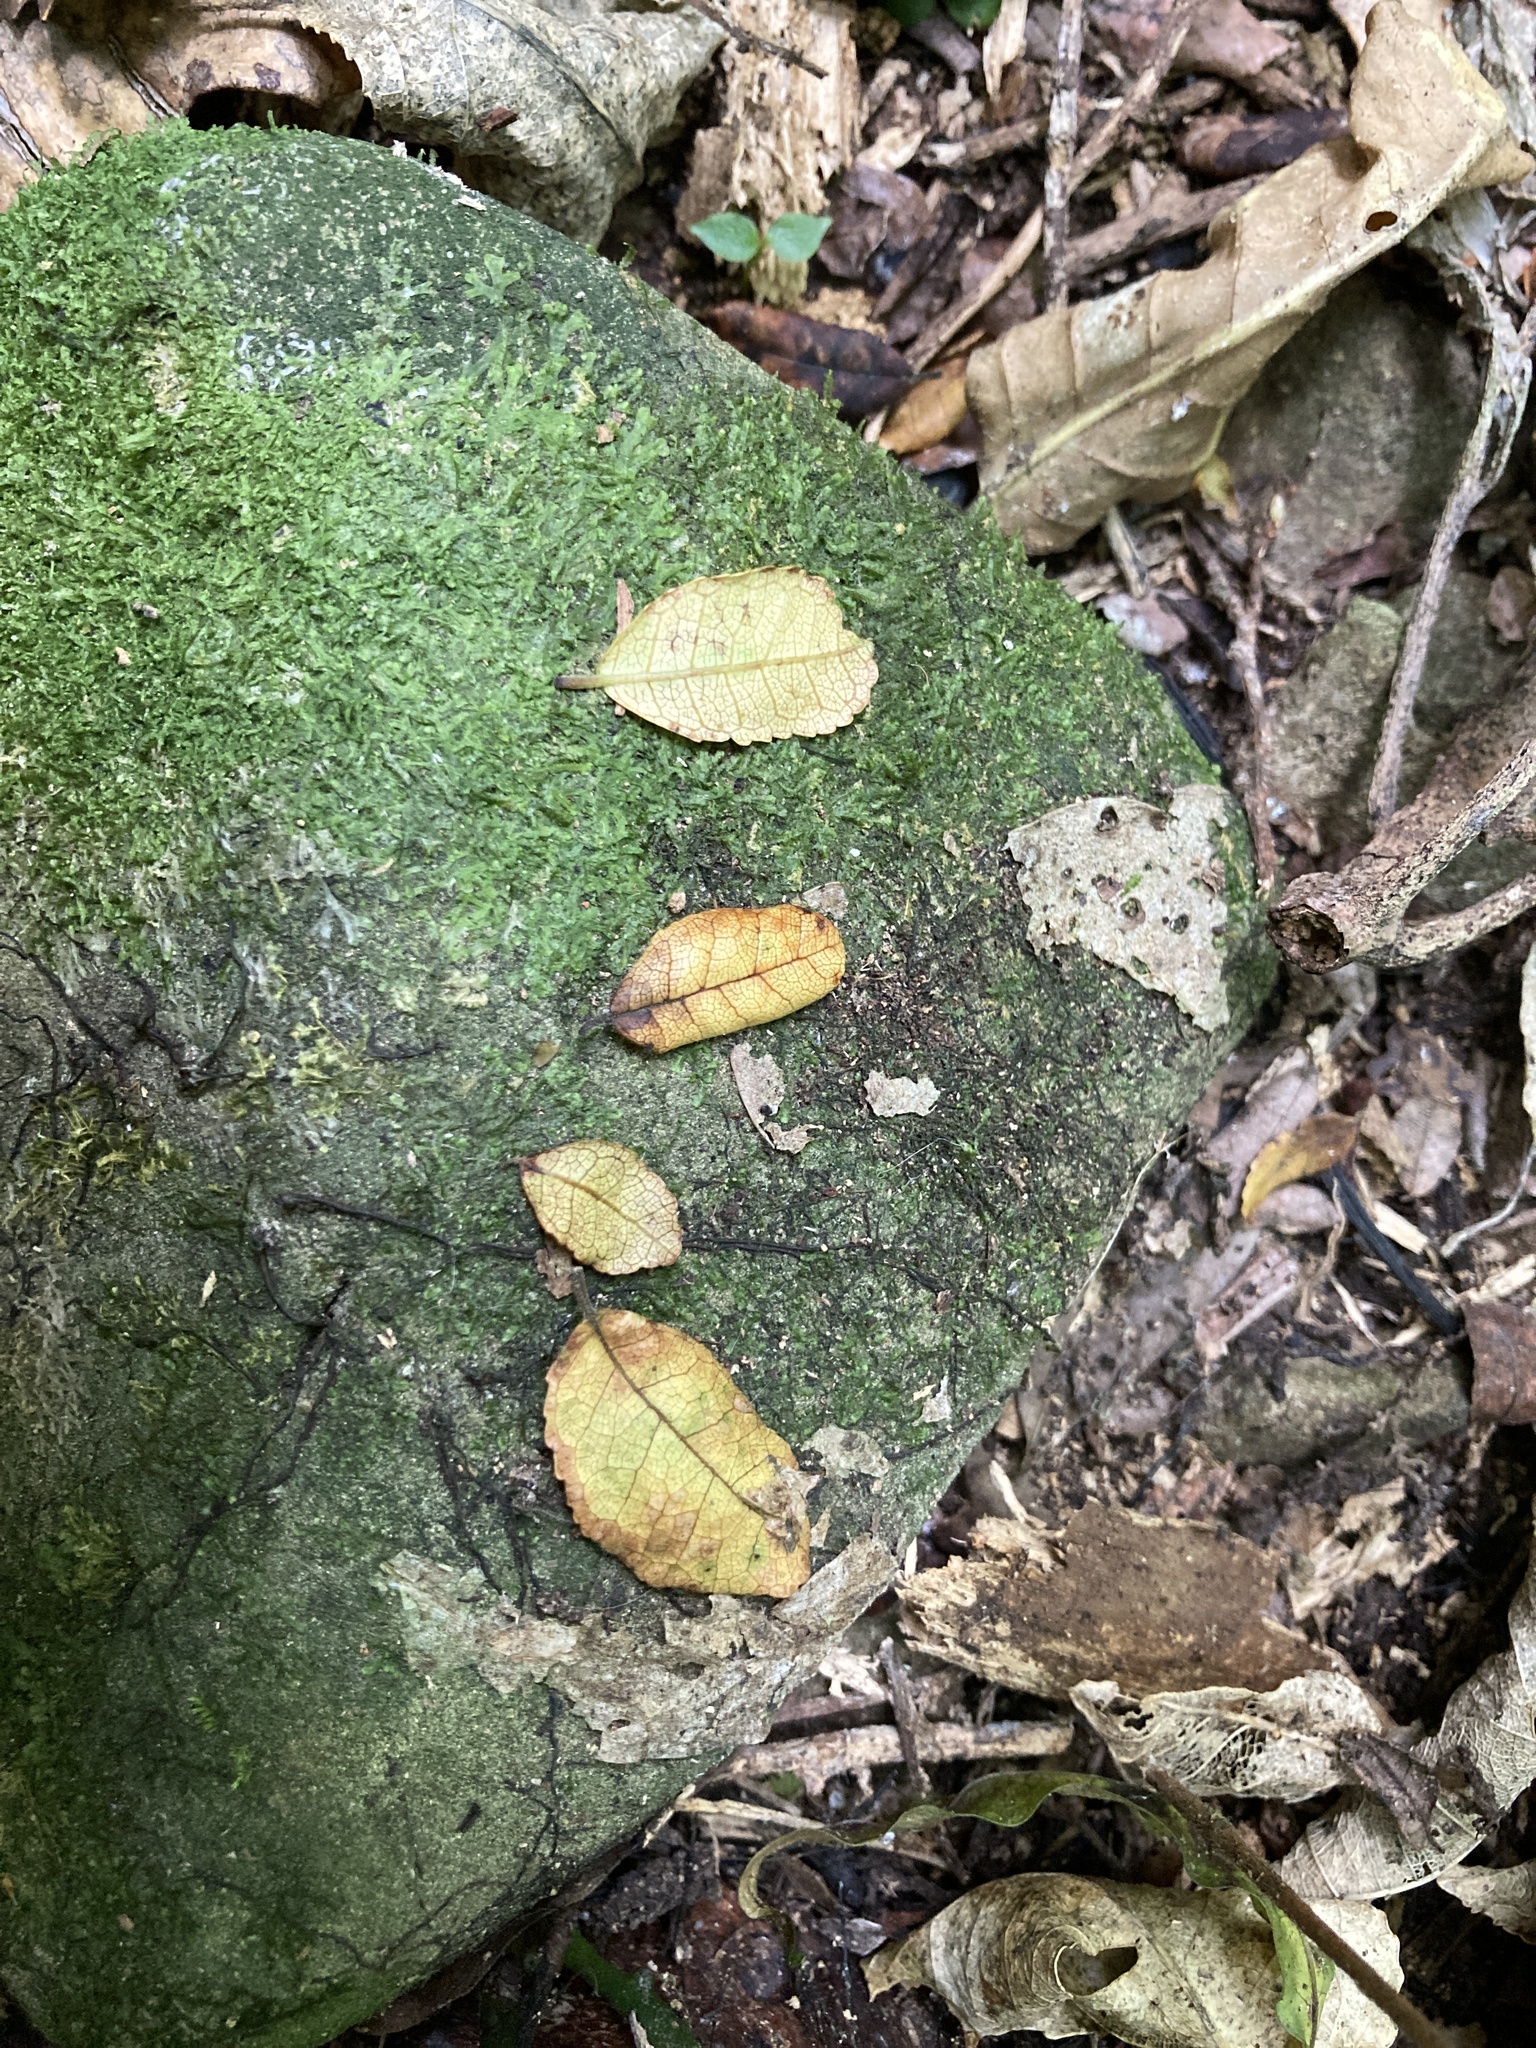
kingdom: Plantae
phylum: Tracheophyta
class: Magnoliopsida
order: Rosales
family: Moraceae
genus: Paratrophis
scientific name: Paratrophis microphylla
